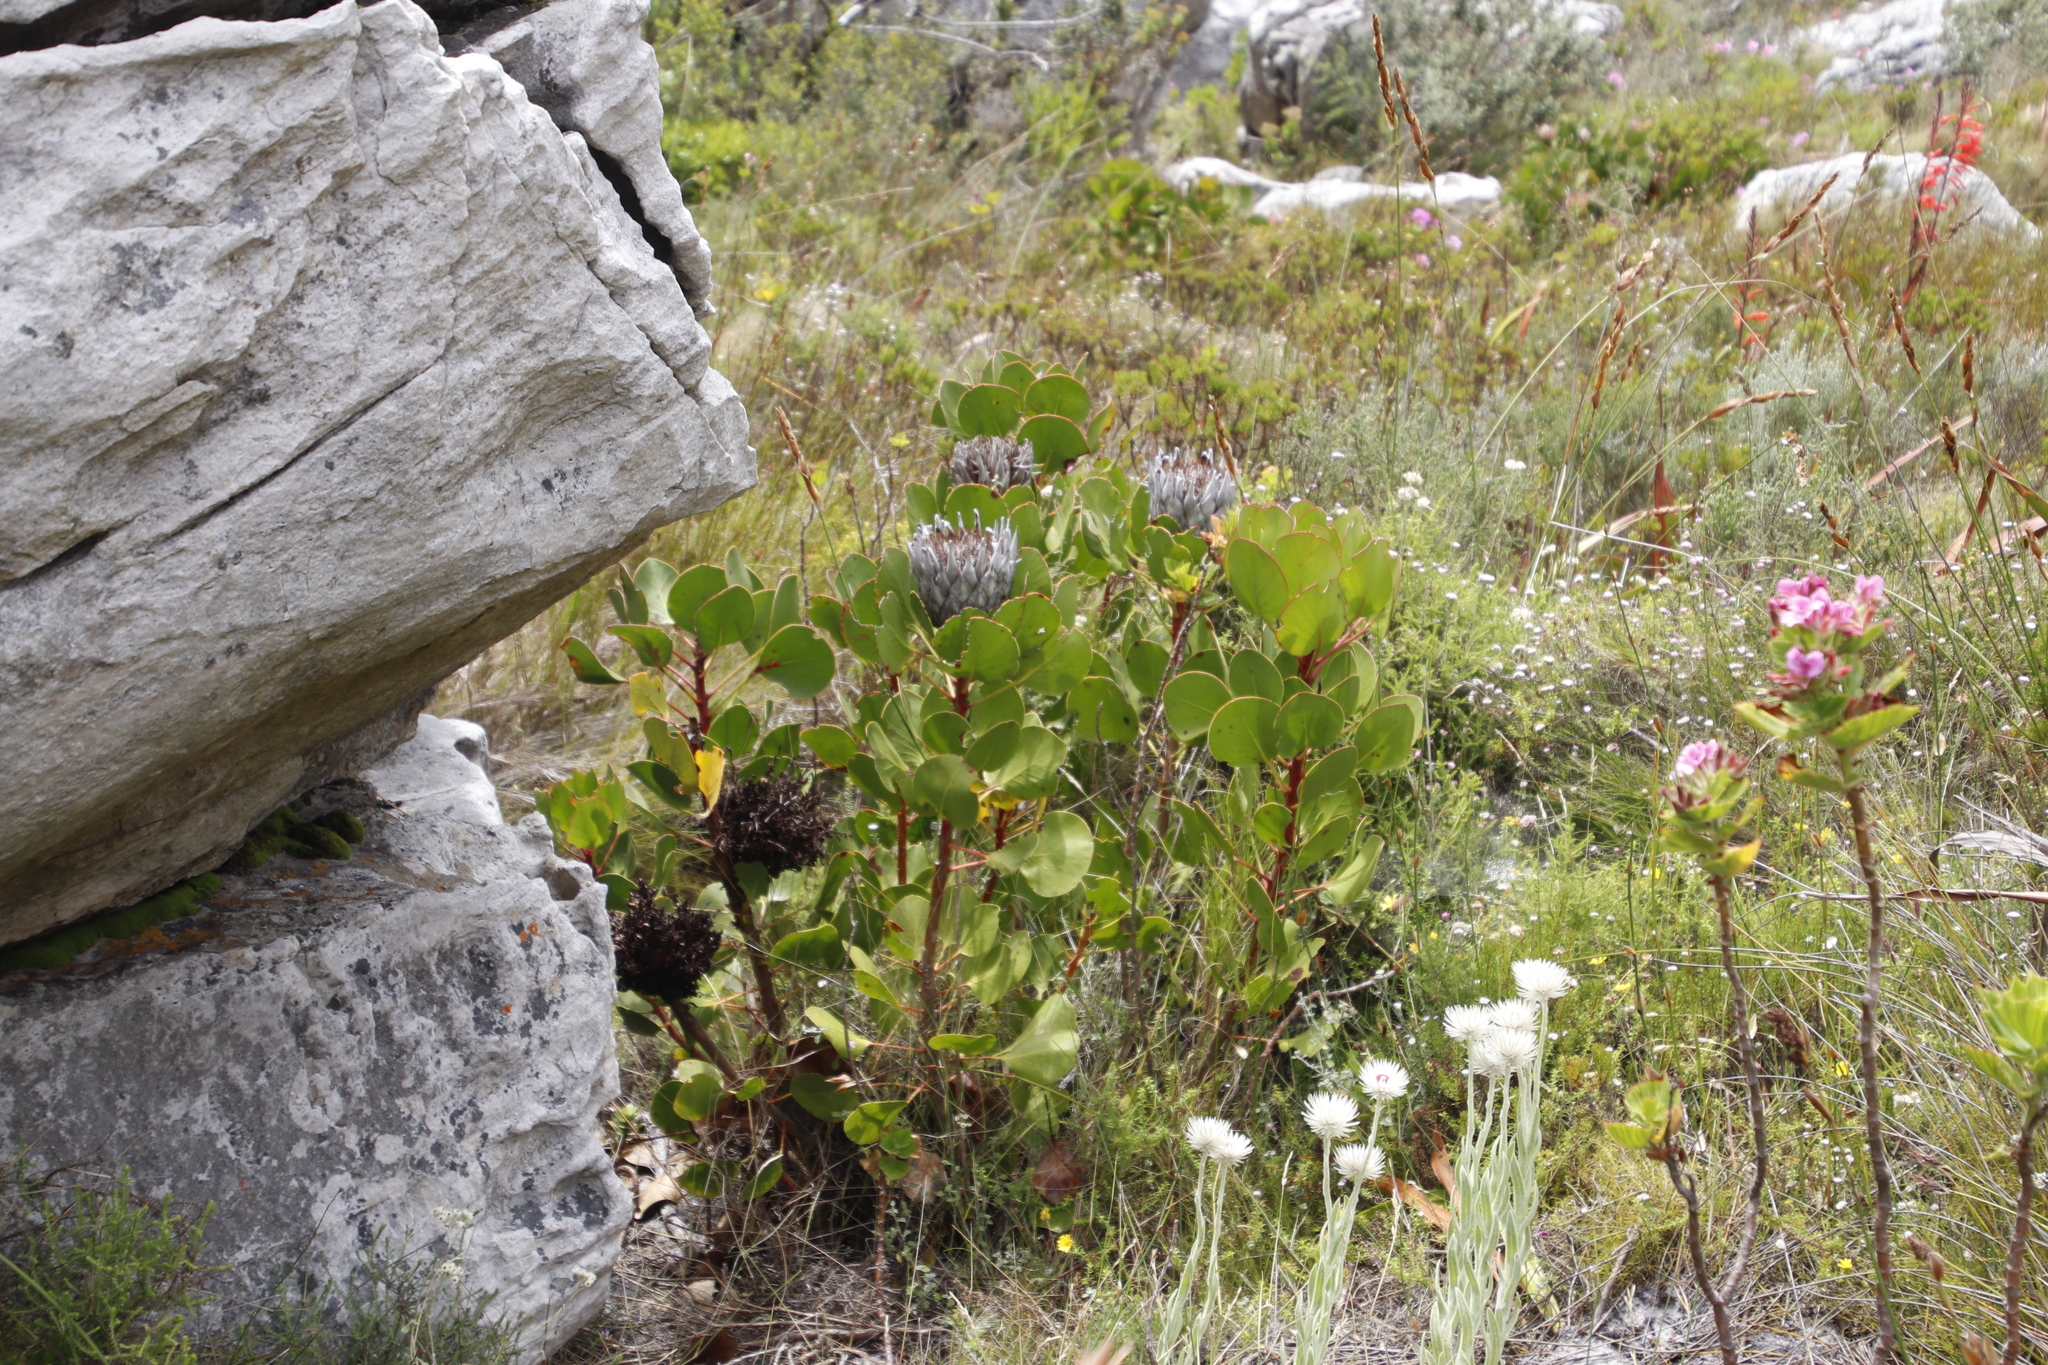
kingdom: Plantae
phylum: Tracheophyta
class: Magnoliopsida
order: Proteales
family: Proteaceae
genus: Protea
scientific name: Protea cynaroides
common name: King protea
